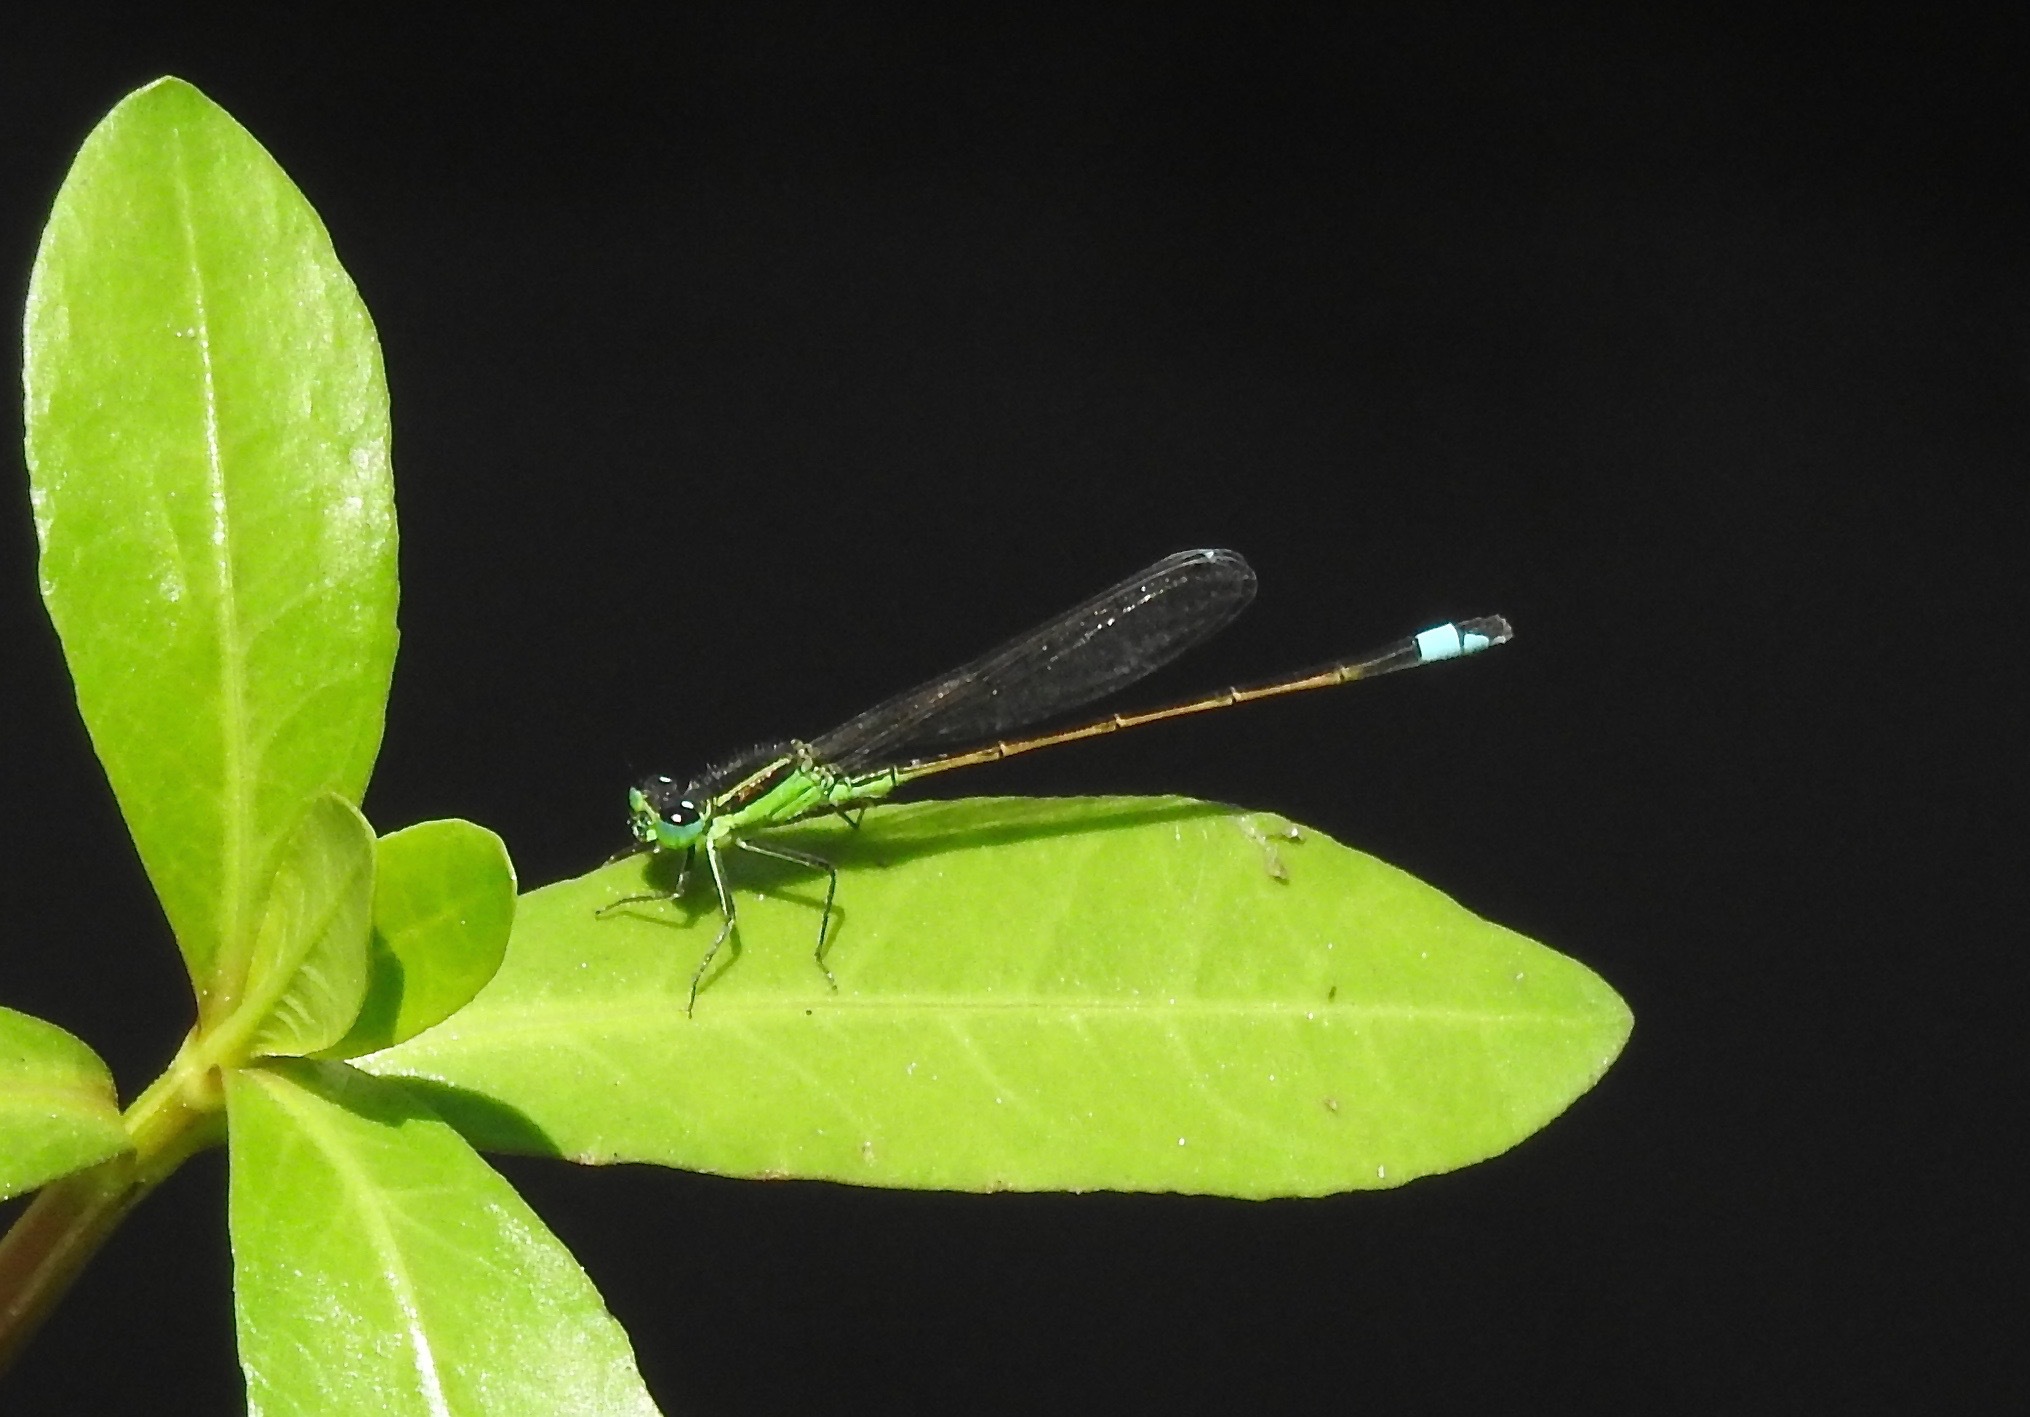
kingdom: Animalia
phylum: Arthropoda
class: Insecta
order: Odonata
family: Coenagrionidae
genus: Ischnura
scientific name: Ischnura ramburii
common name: Rambur's forktail
